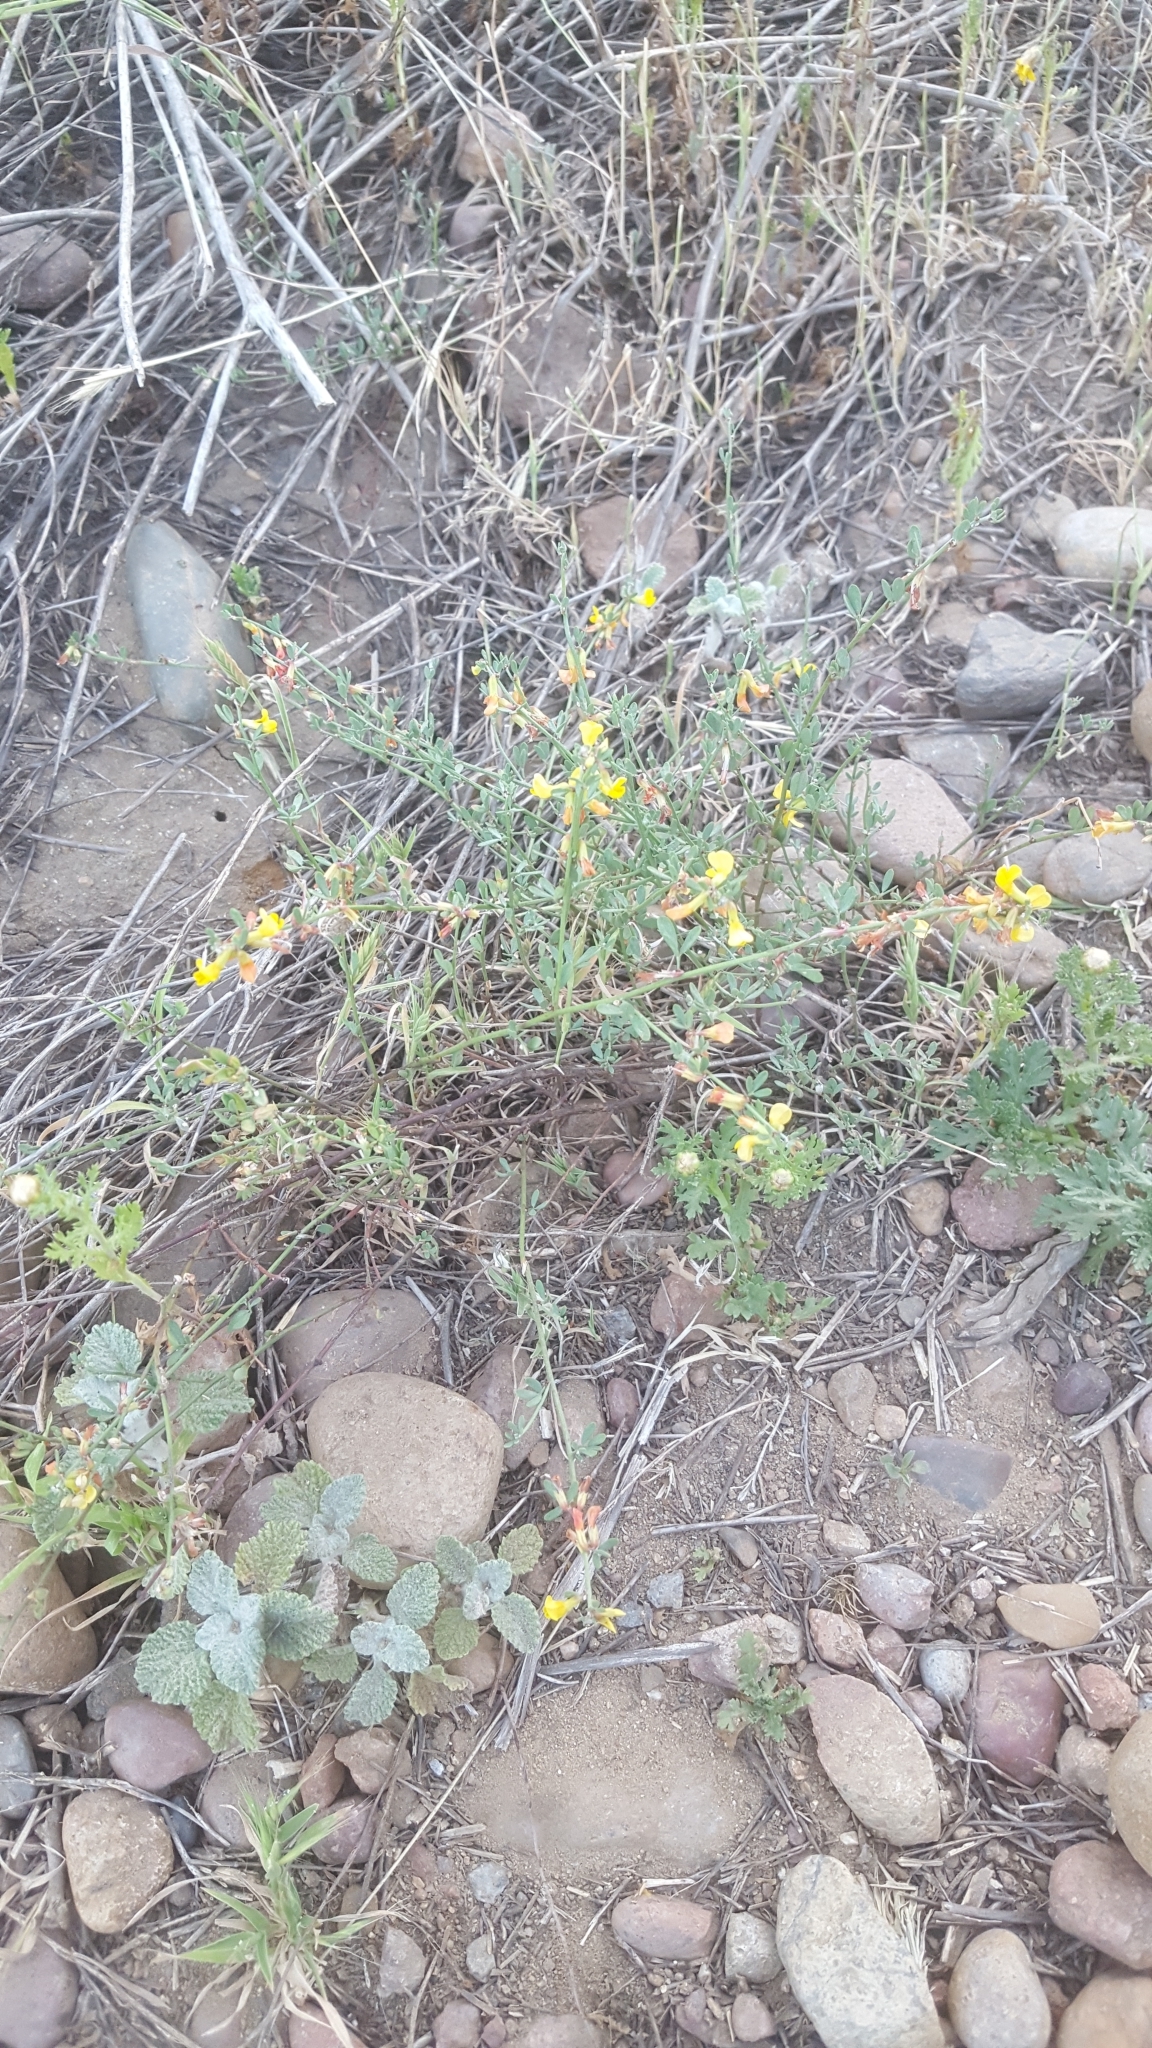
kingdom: Plantae
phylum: Tracheophyta
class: Magnoliopsida
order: Fabales
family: Fabaceae
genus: Acmispon
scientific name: Acmispon glaber
